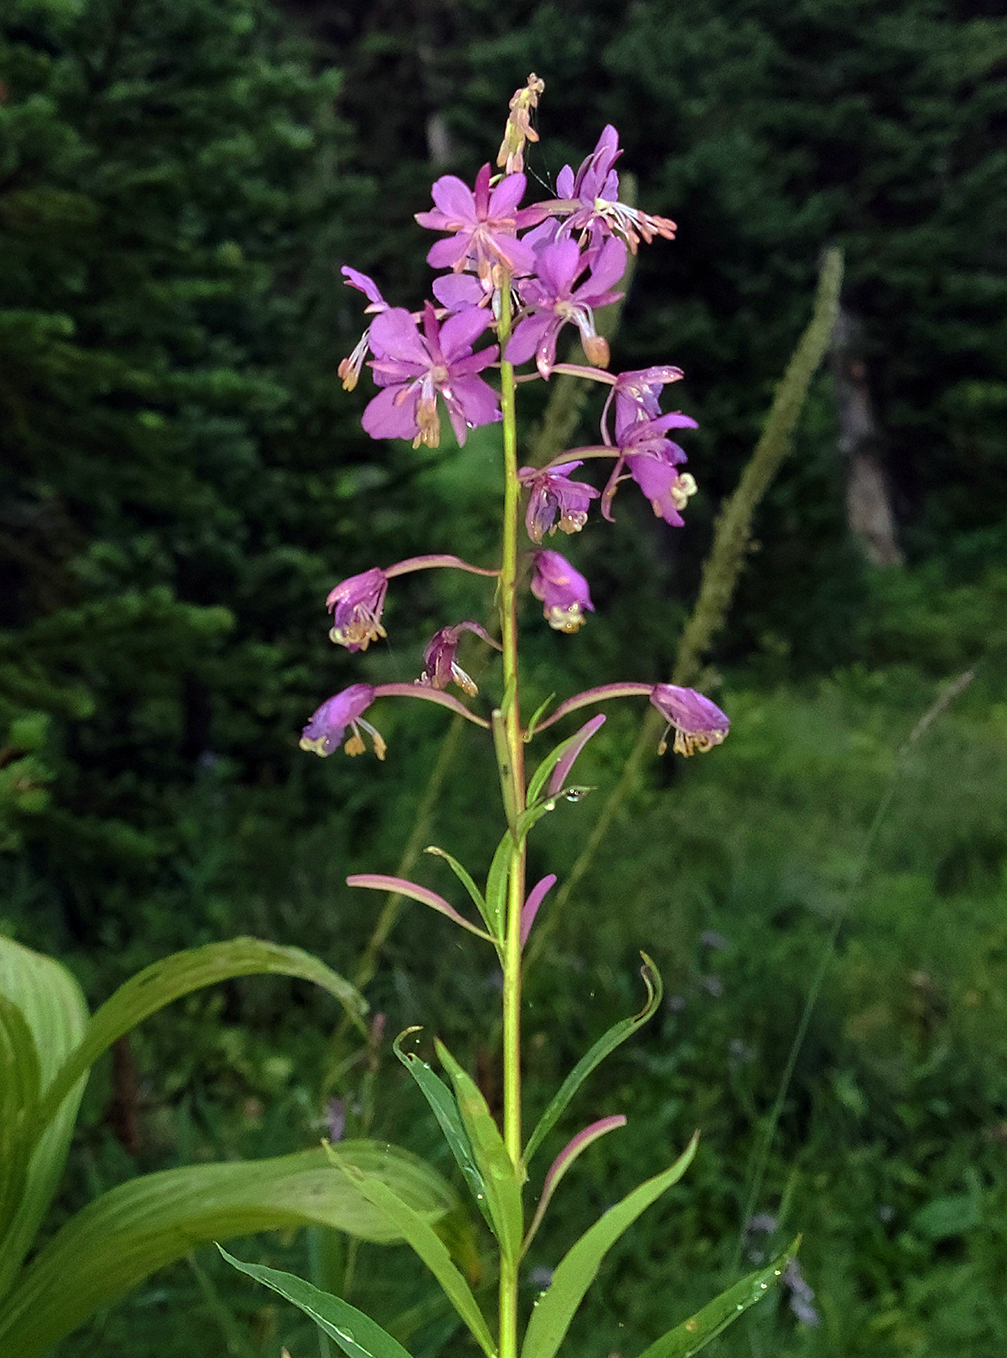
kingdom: Plantae
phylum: Tracheophyta
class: Magnoliopsida
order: Myrtales
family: Onagraceae
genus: Chamaenerion
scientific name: Chamaenerion angustifolium
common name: Fireweed
